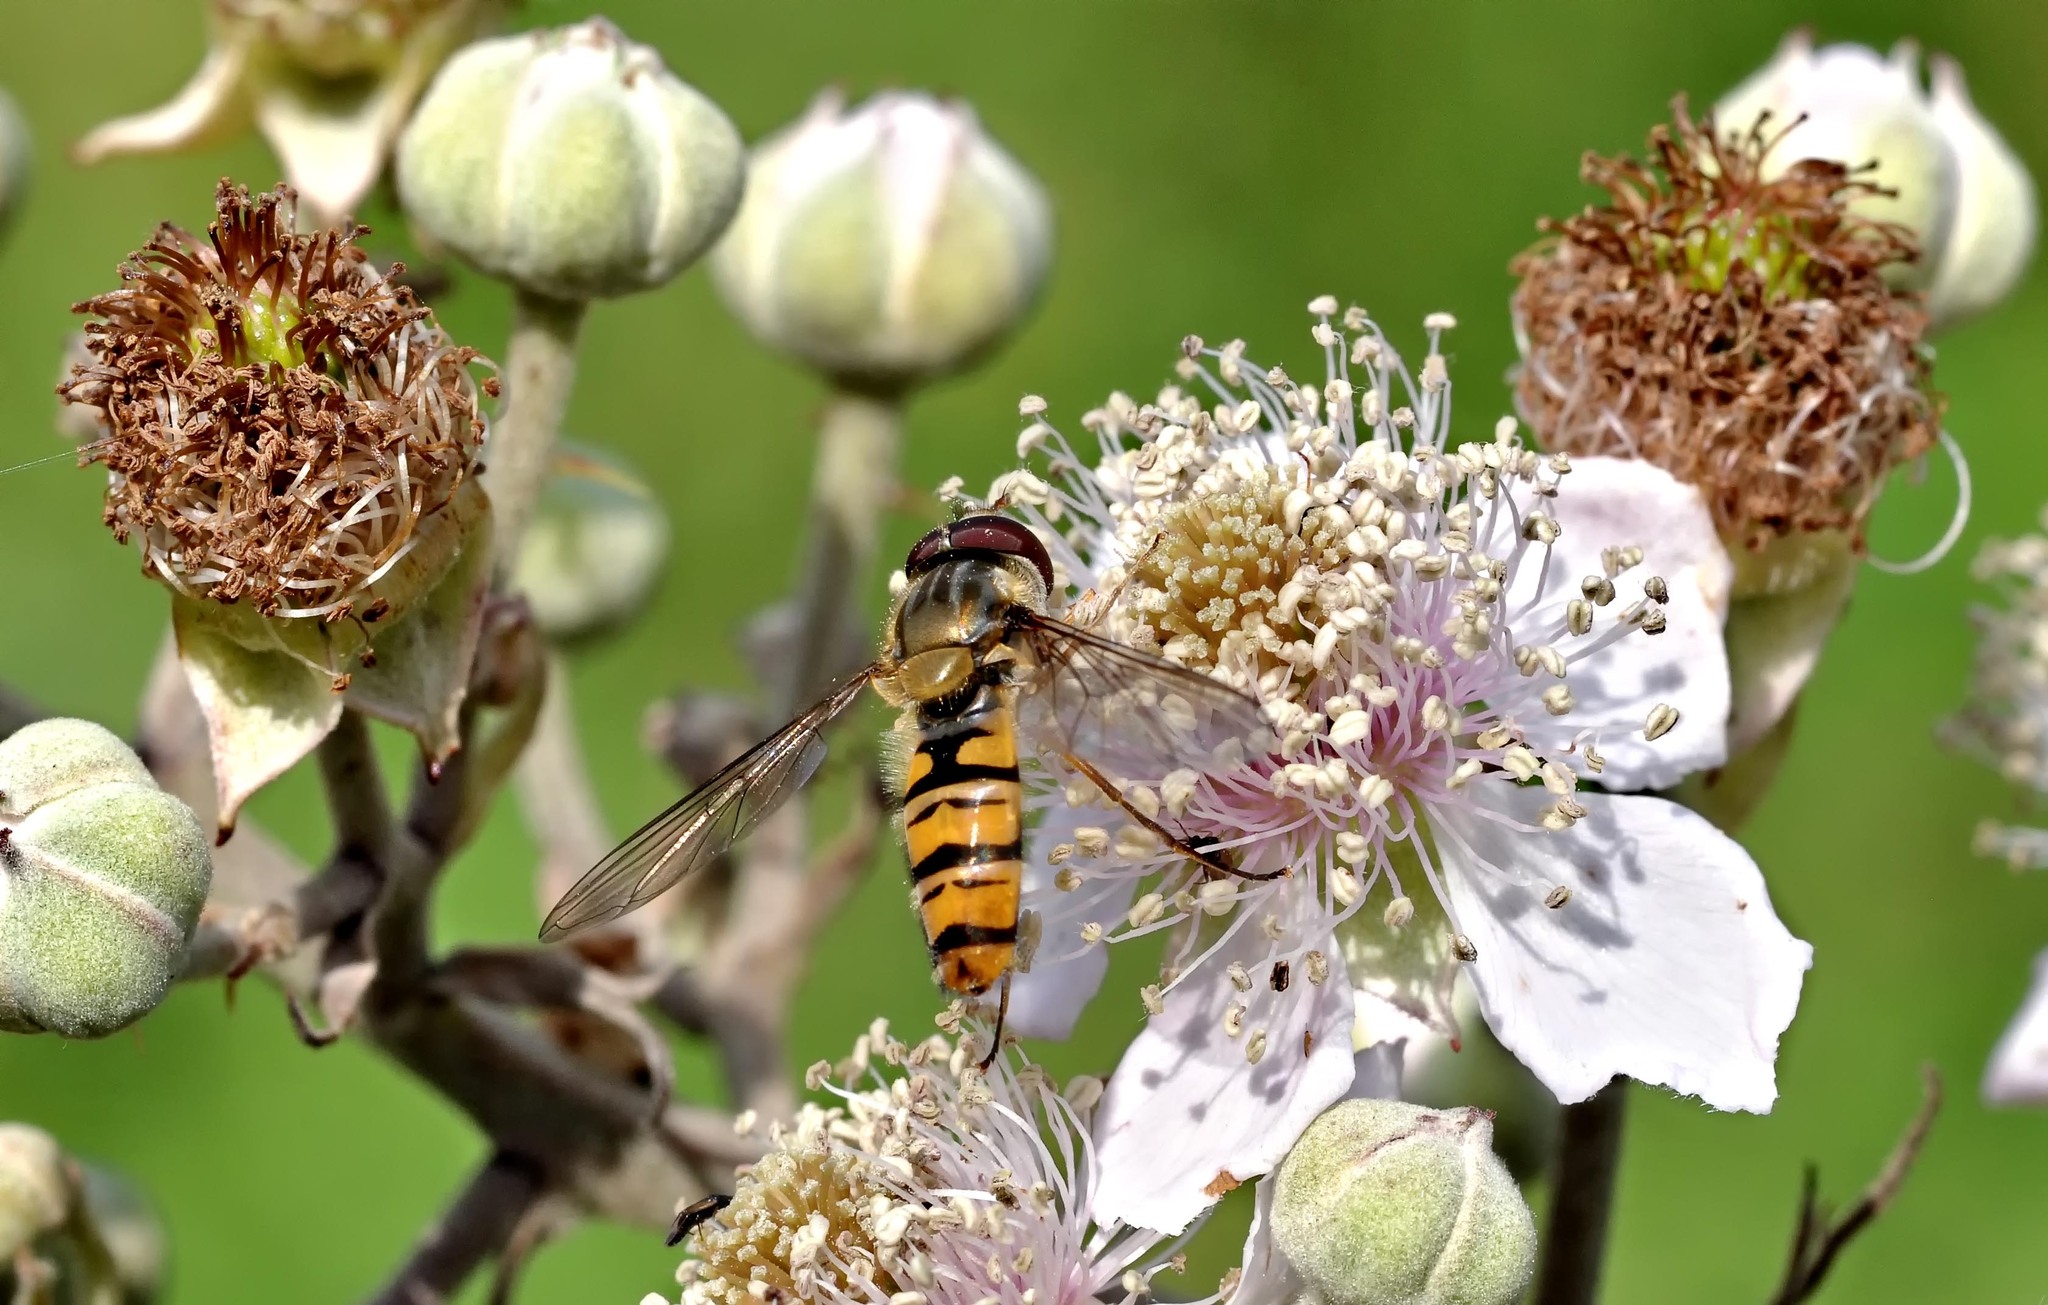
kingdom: Animalia
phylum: Arthropoda
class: Insecta
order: Diptera
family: Syrphidae
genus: Episyrphus
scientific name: Episyrphus balteatus
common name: Marmalade hoverfly
